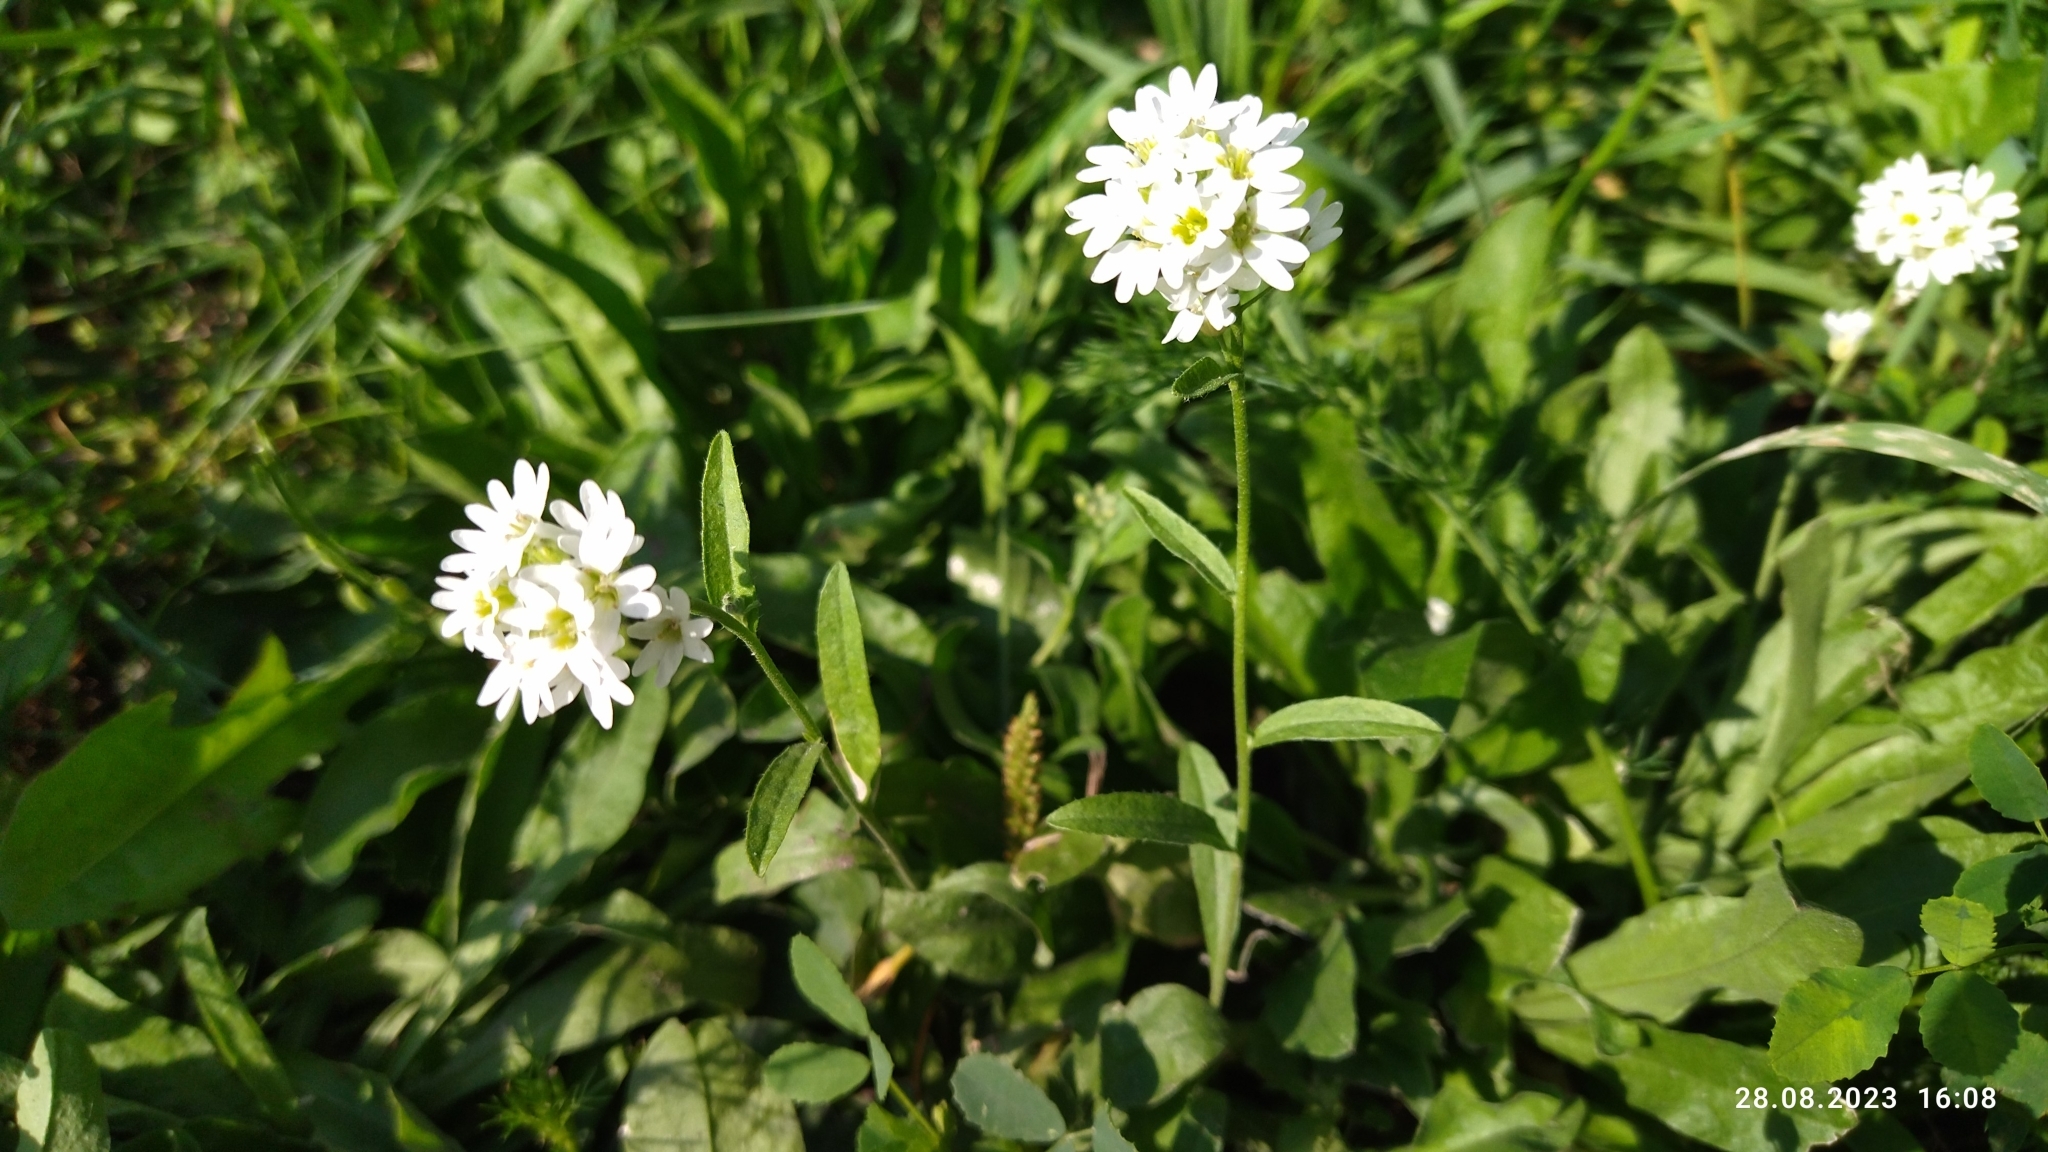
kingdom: Plantae
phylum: Tracheophyta
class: Magnoliopsida
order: Brassicales
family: Brassicaceae
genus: Berteroa
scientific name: Berteroa incana
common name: Hoary alison
